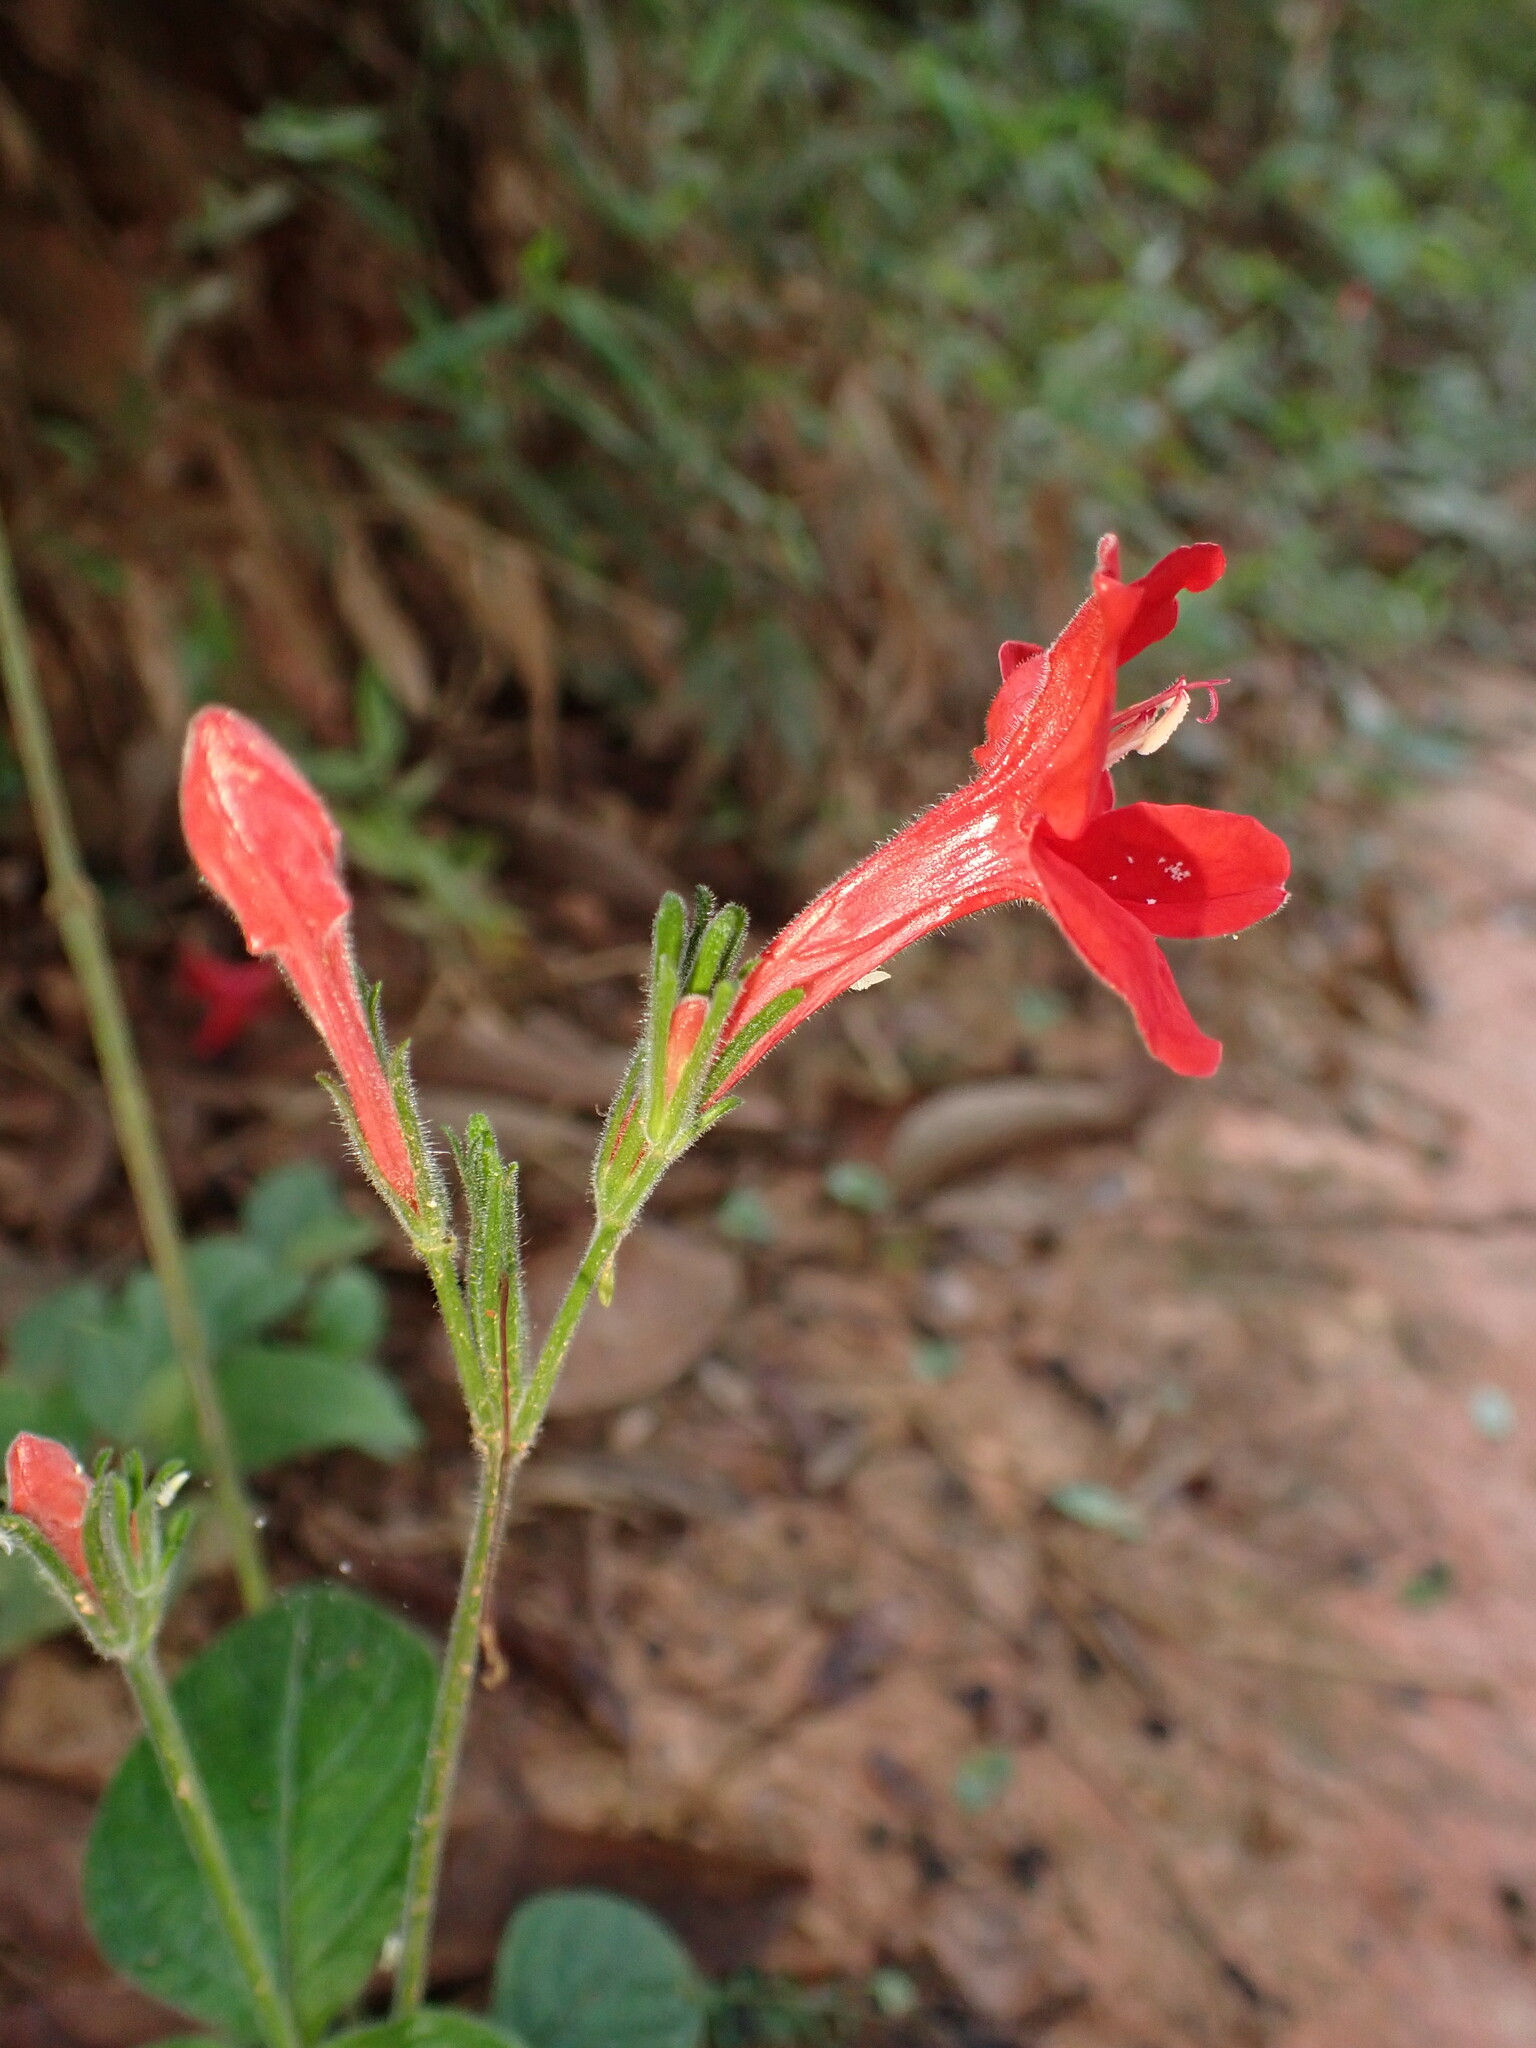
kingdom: Plantae
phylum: Tracheophyta
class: Magnoliopsida
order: Lamiales
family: Acanthaceae
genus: Ruellia
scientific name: Ruellia elegans
